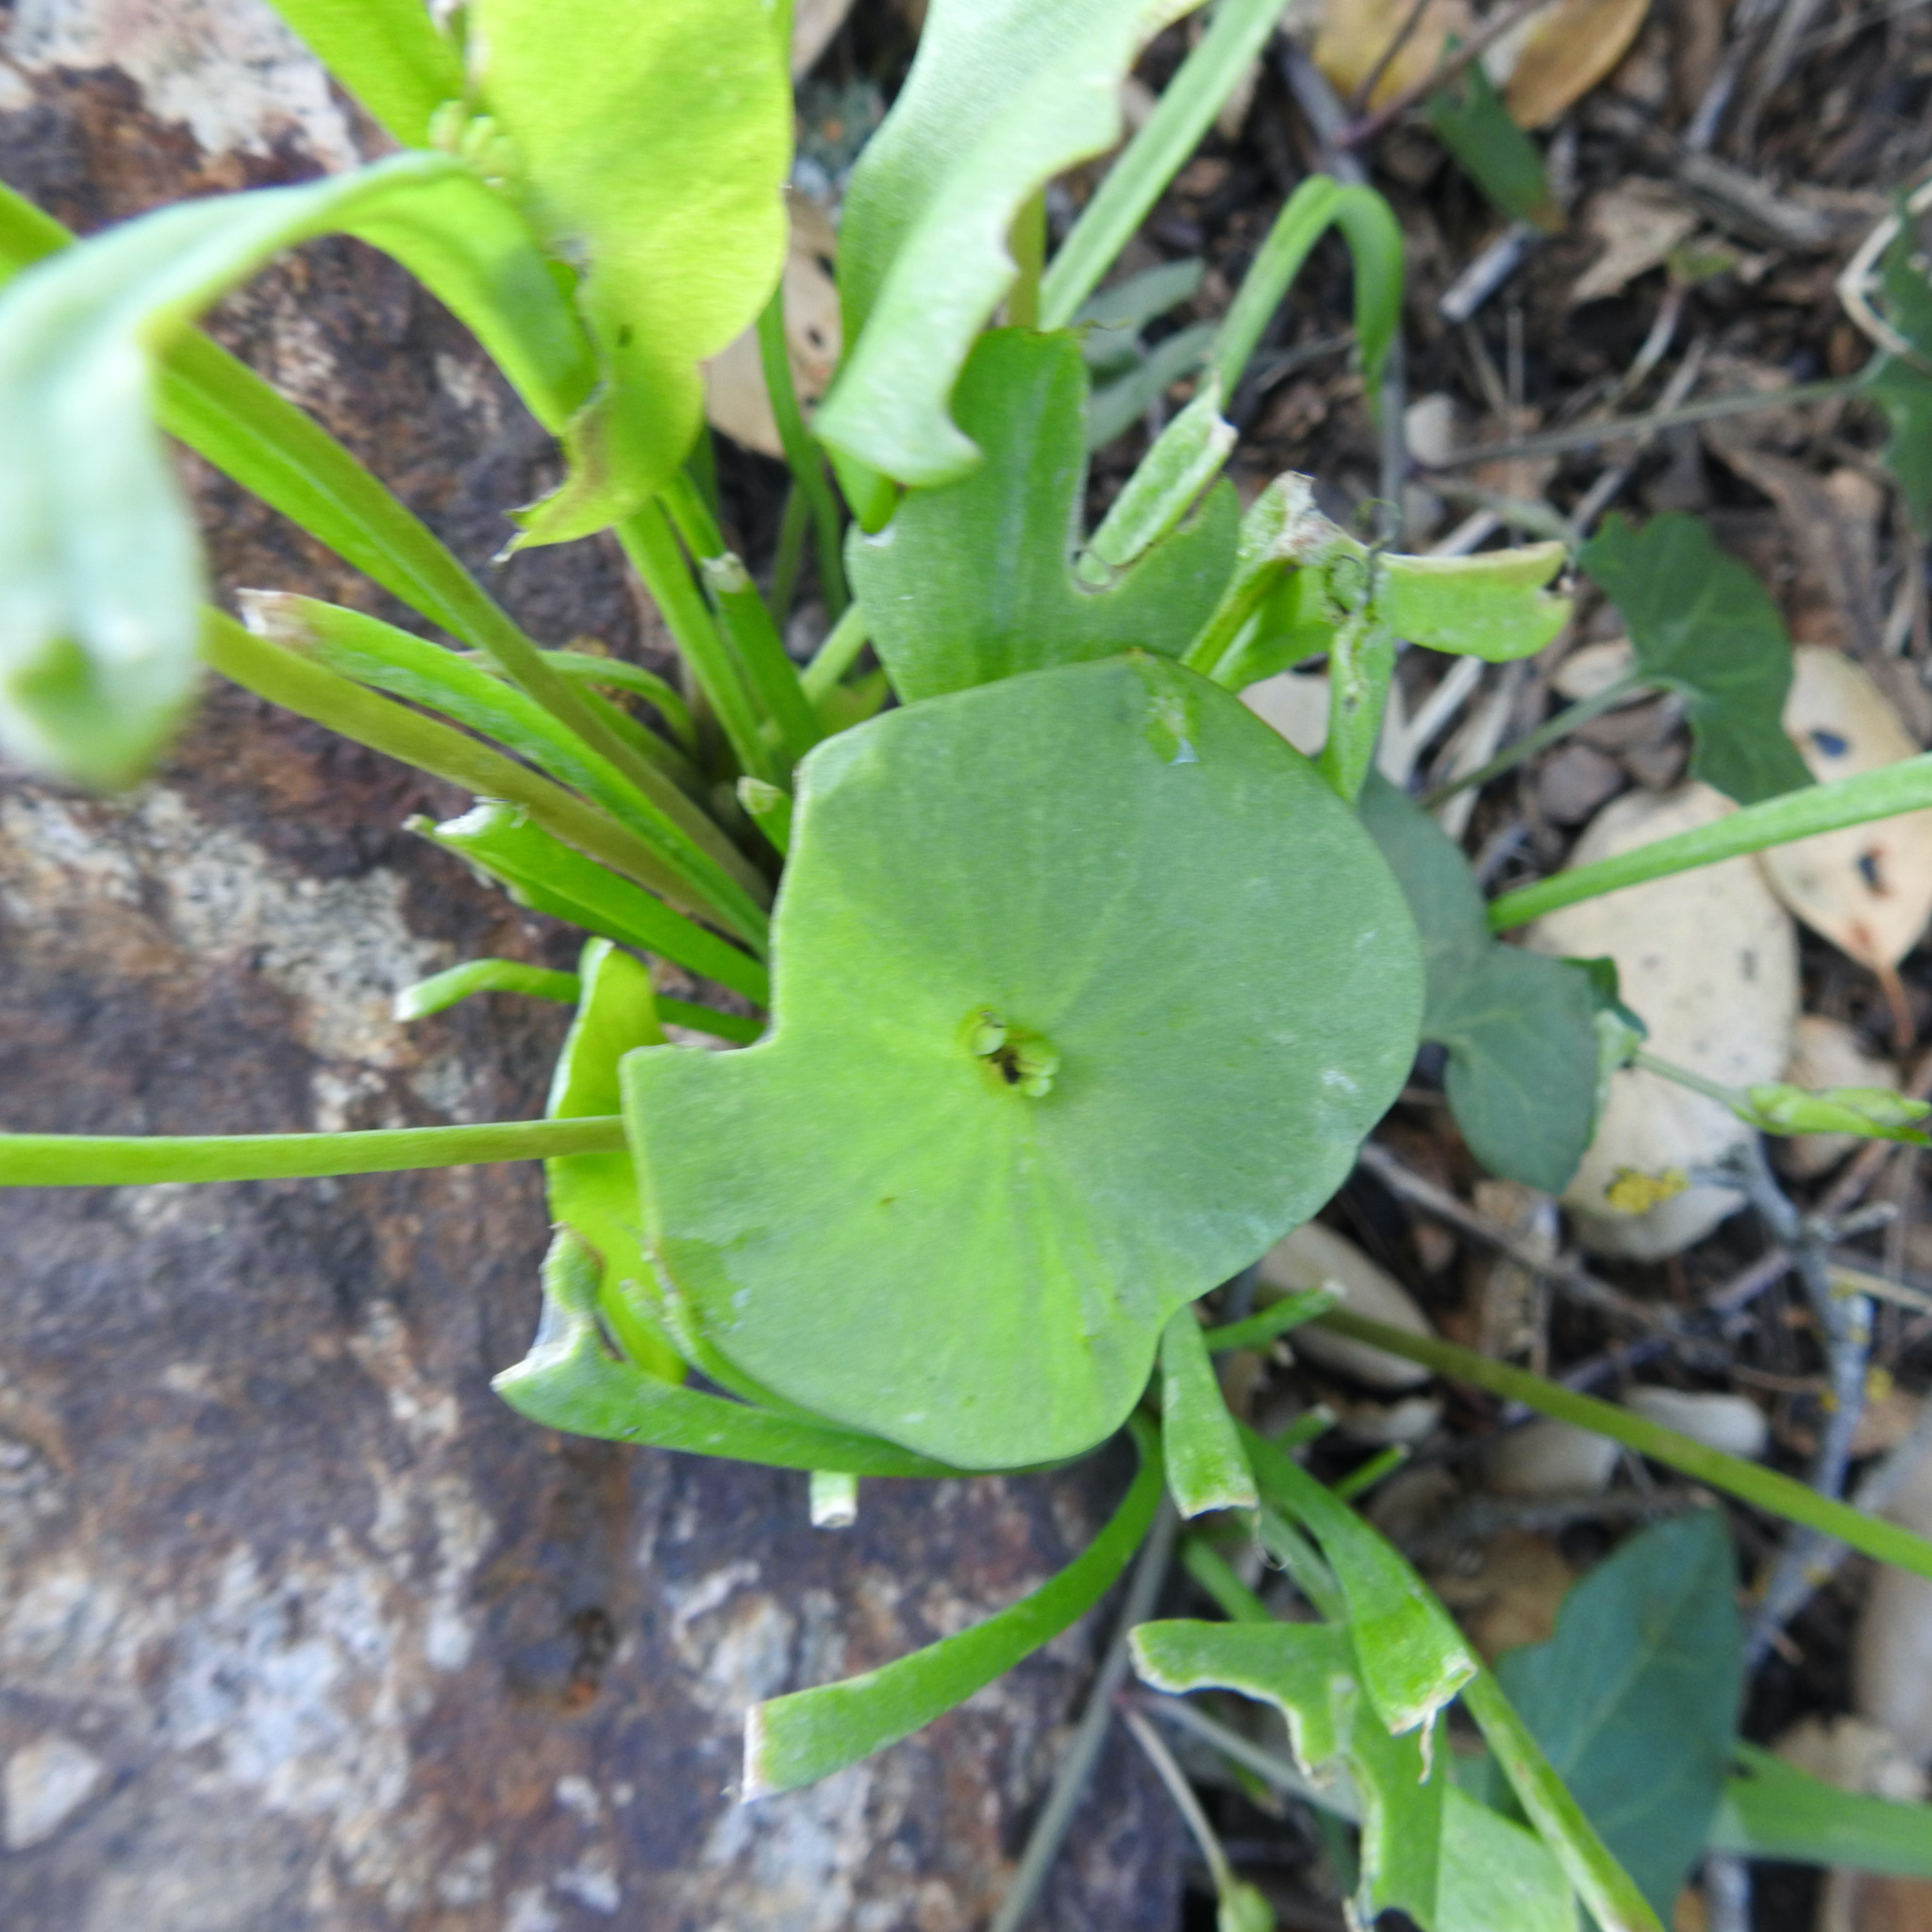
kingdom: Plantae
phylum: Tracheophyta
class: Magnoliopsida
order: Caryophyllales
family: Montiaceae
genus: Claytonia
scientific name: Claytonia perfoliata
